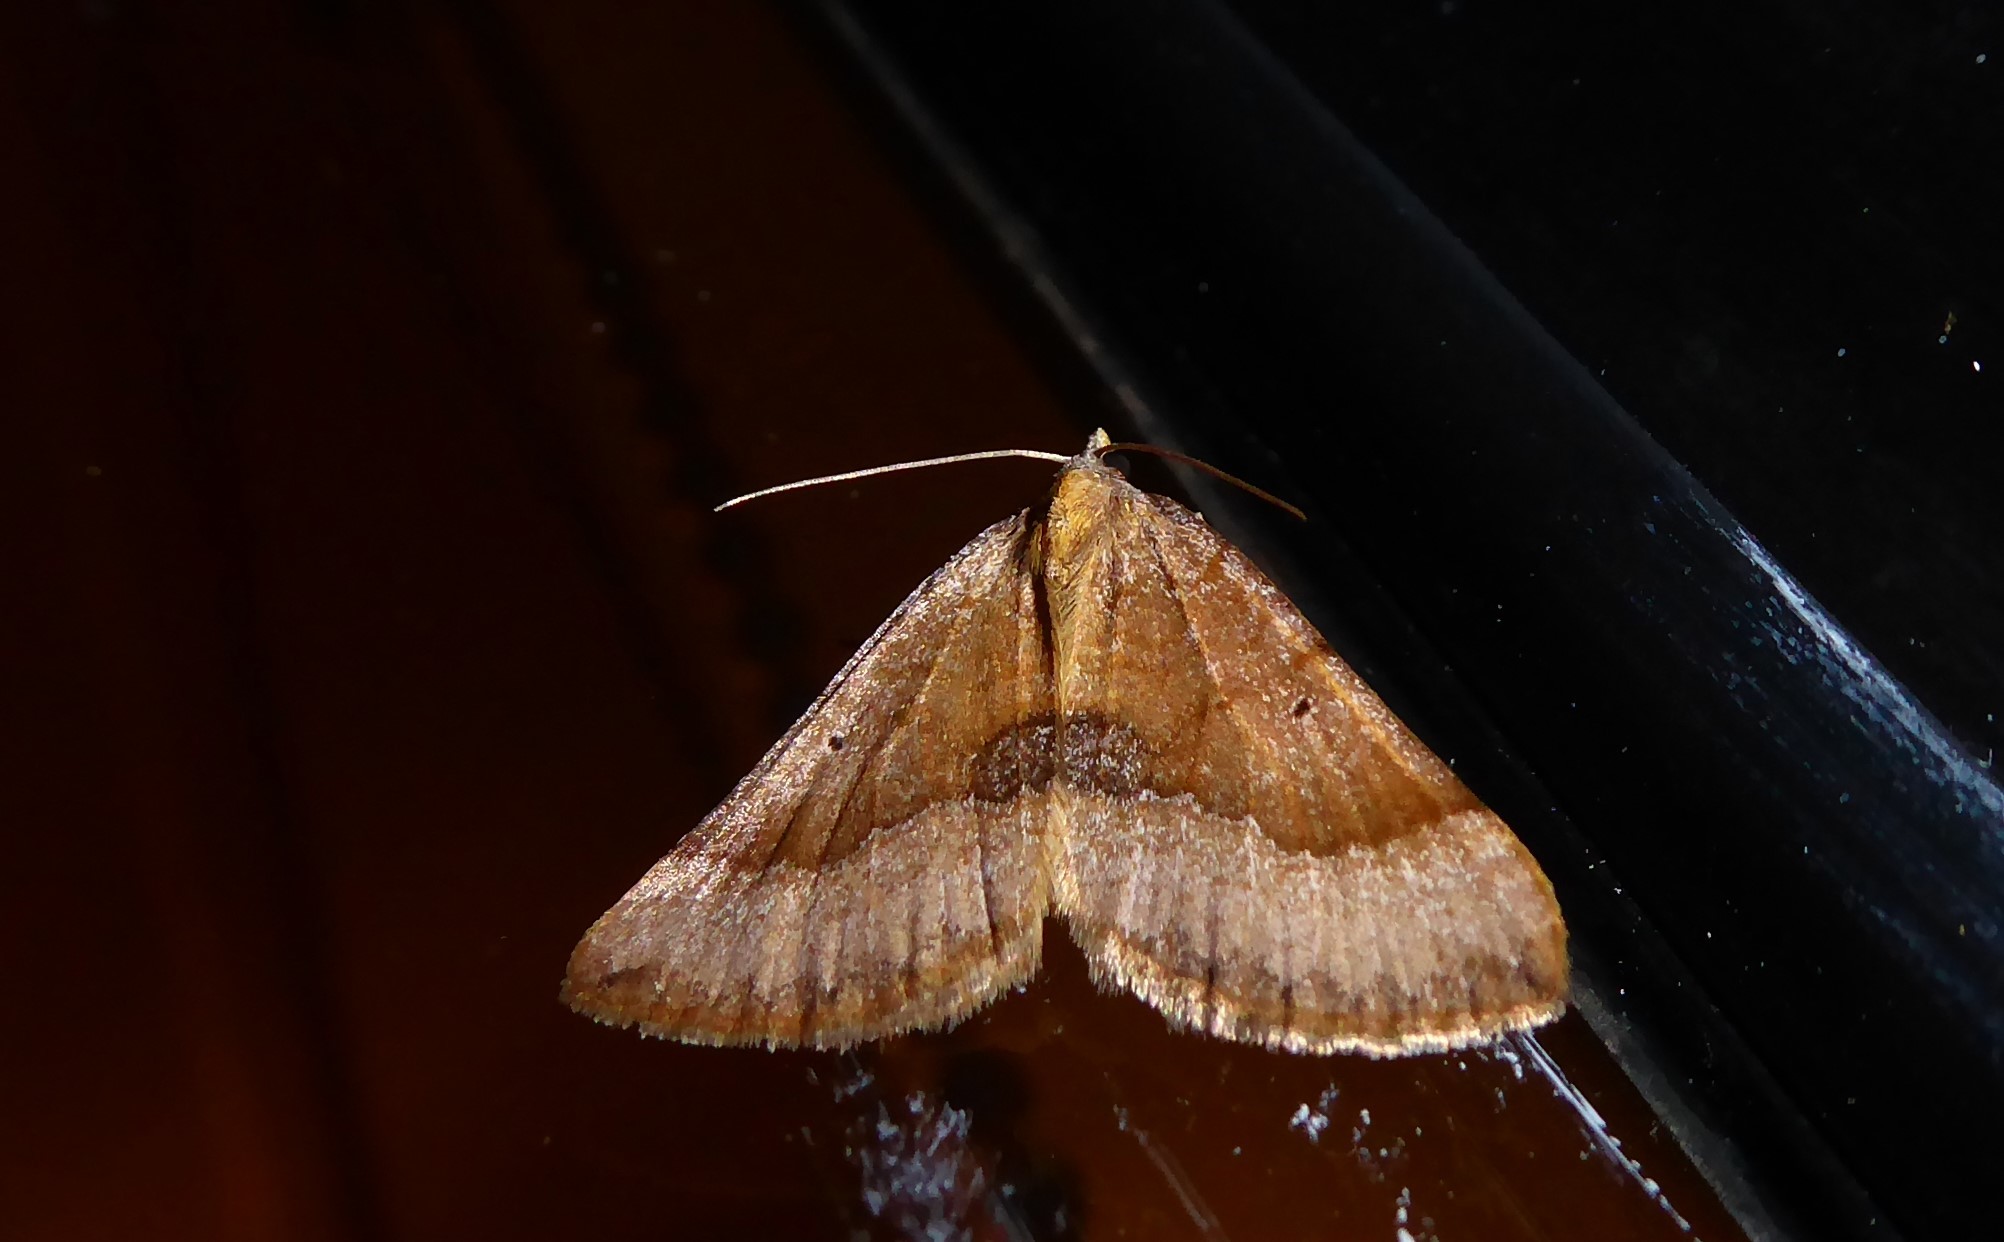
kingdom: Animalia
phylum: Arthropoda
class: Insecta
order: Lepidoptera
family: Geometridae
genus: Anachloris
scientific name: Anachloris subochraria
